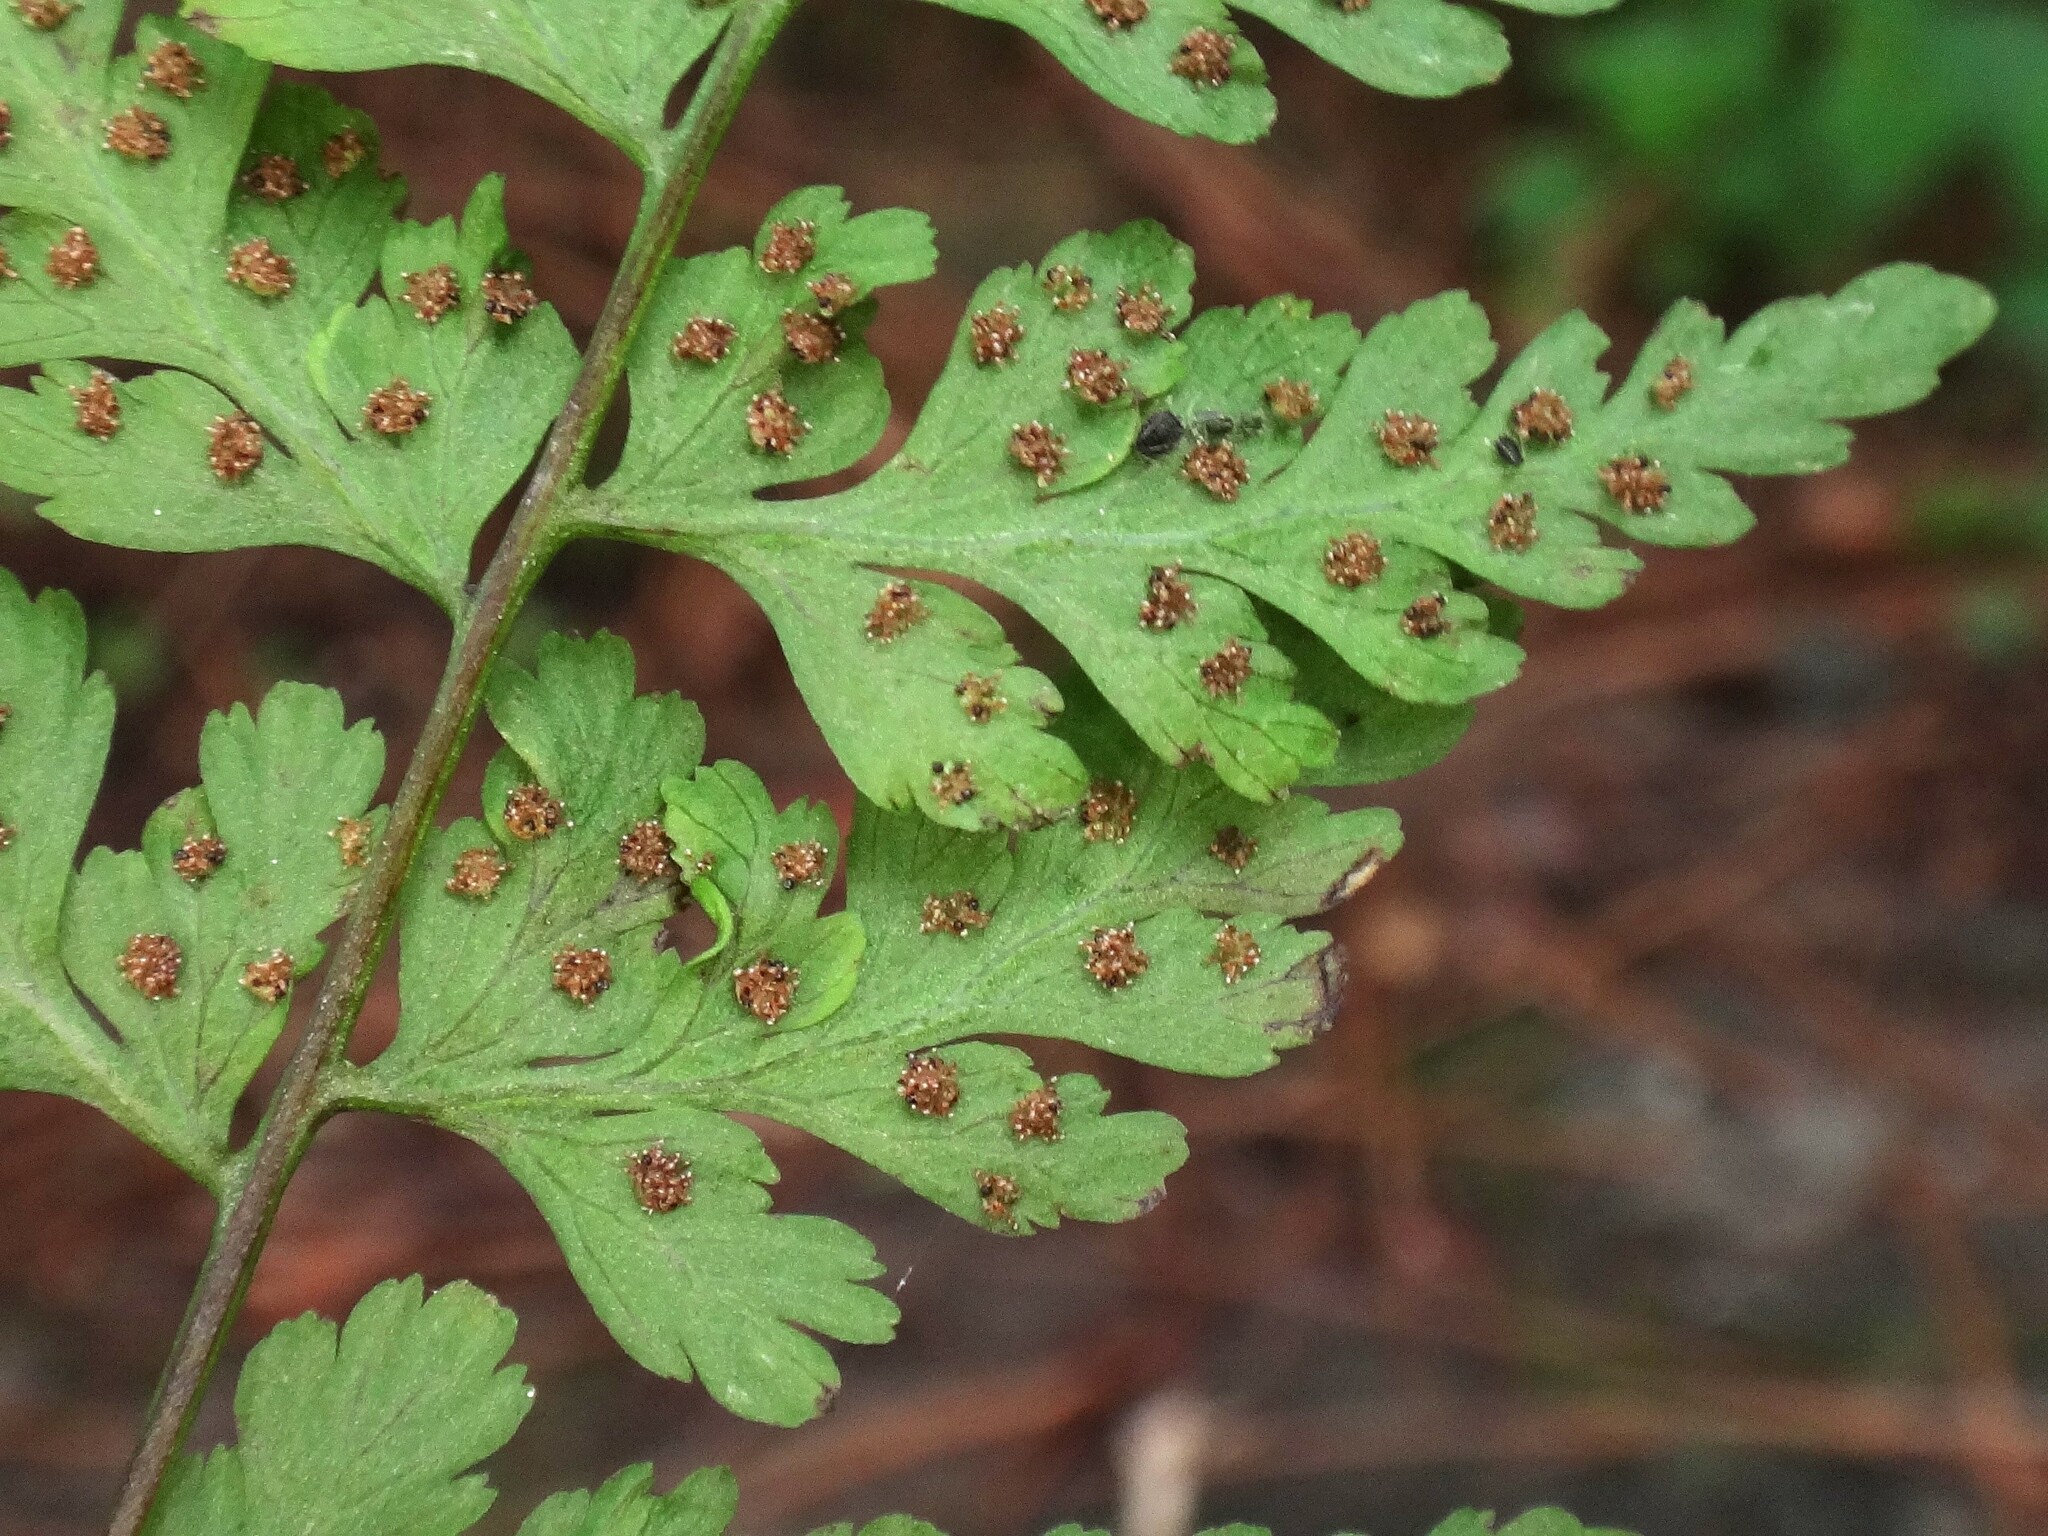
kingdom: Plantae
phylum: Tracheophyta
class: Polypodiopsida
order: Polypodiales
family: Cystopteridaceae
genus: Cystopteris
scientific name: Cystopteris diaphana
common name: Greenish bladder-fern
